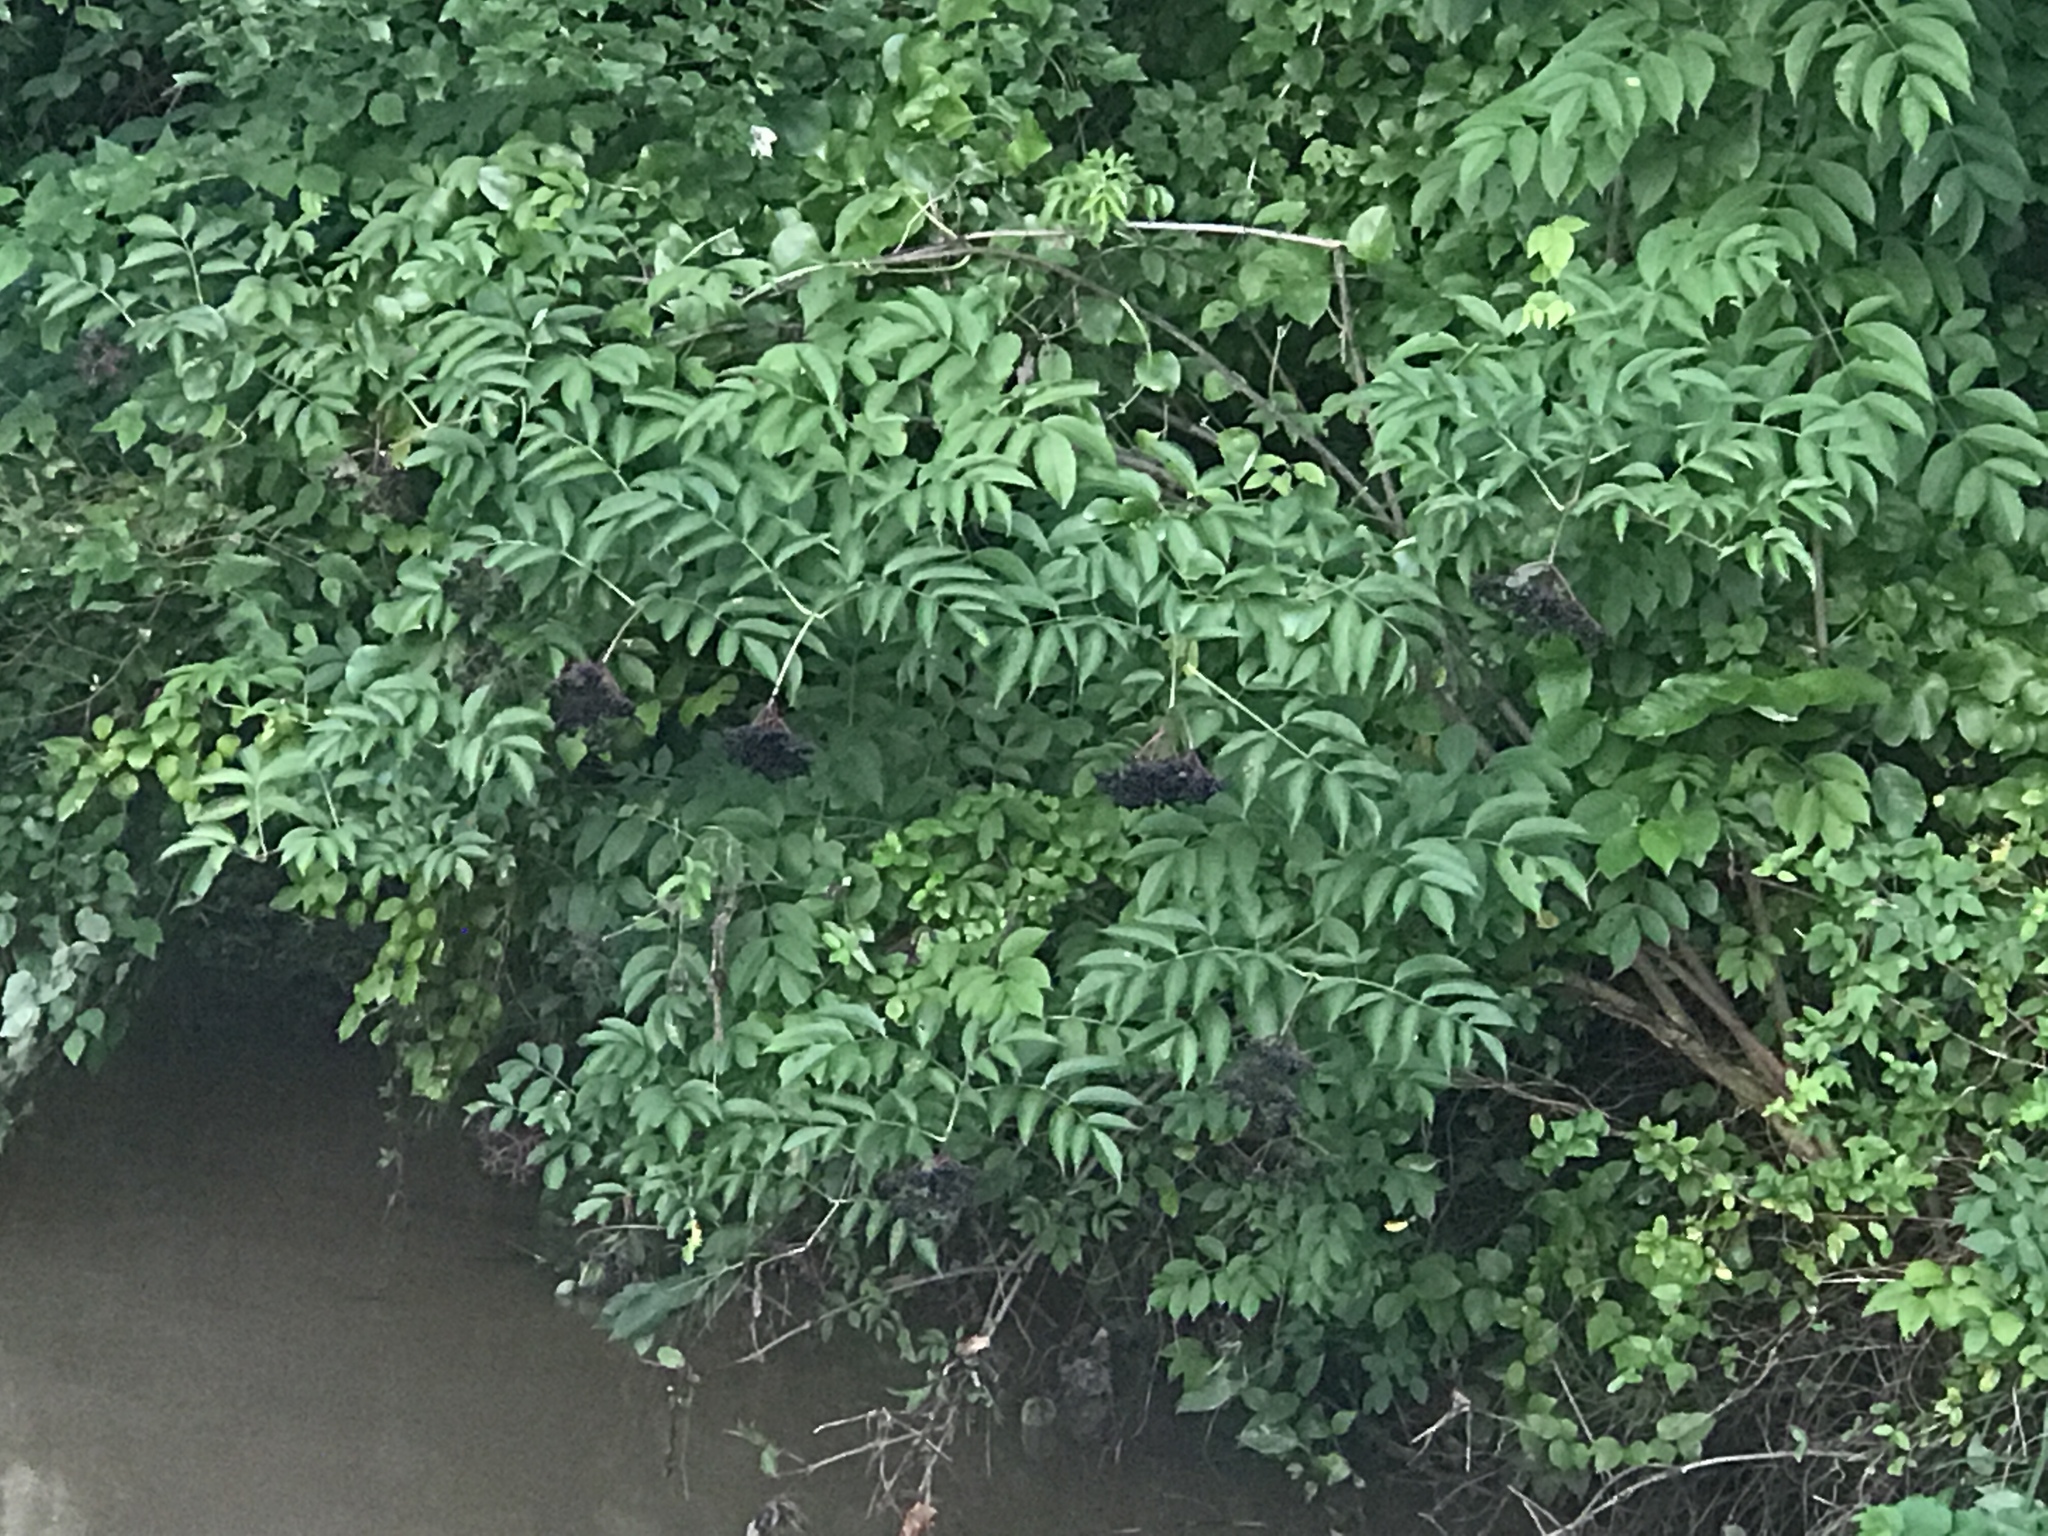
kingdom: Plantae
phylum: Tracheophyta
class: Magnoliopsida
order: Dipsacales
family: Viburnaceae
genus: Sambucus
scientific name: Sambucus canadensis
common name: American elder
